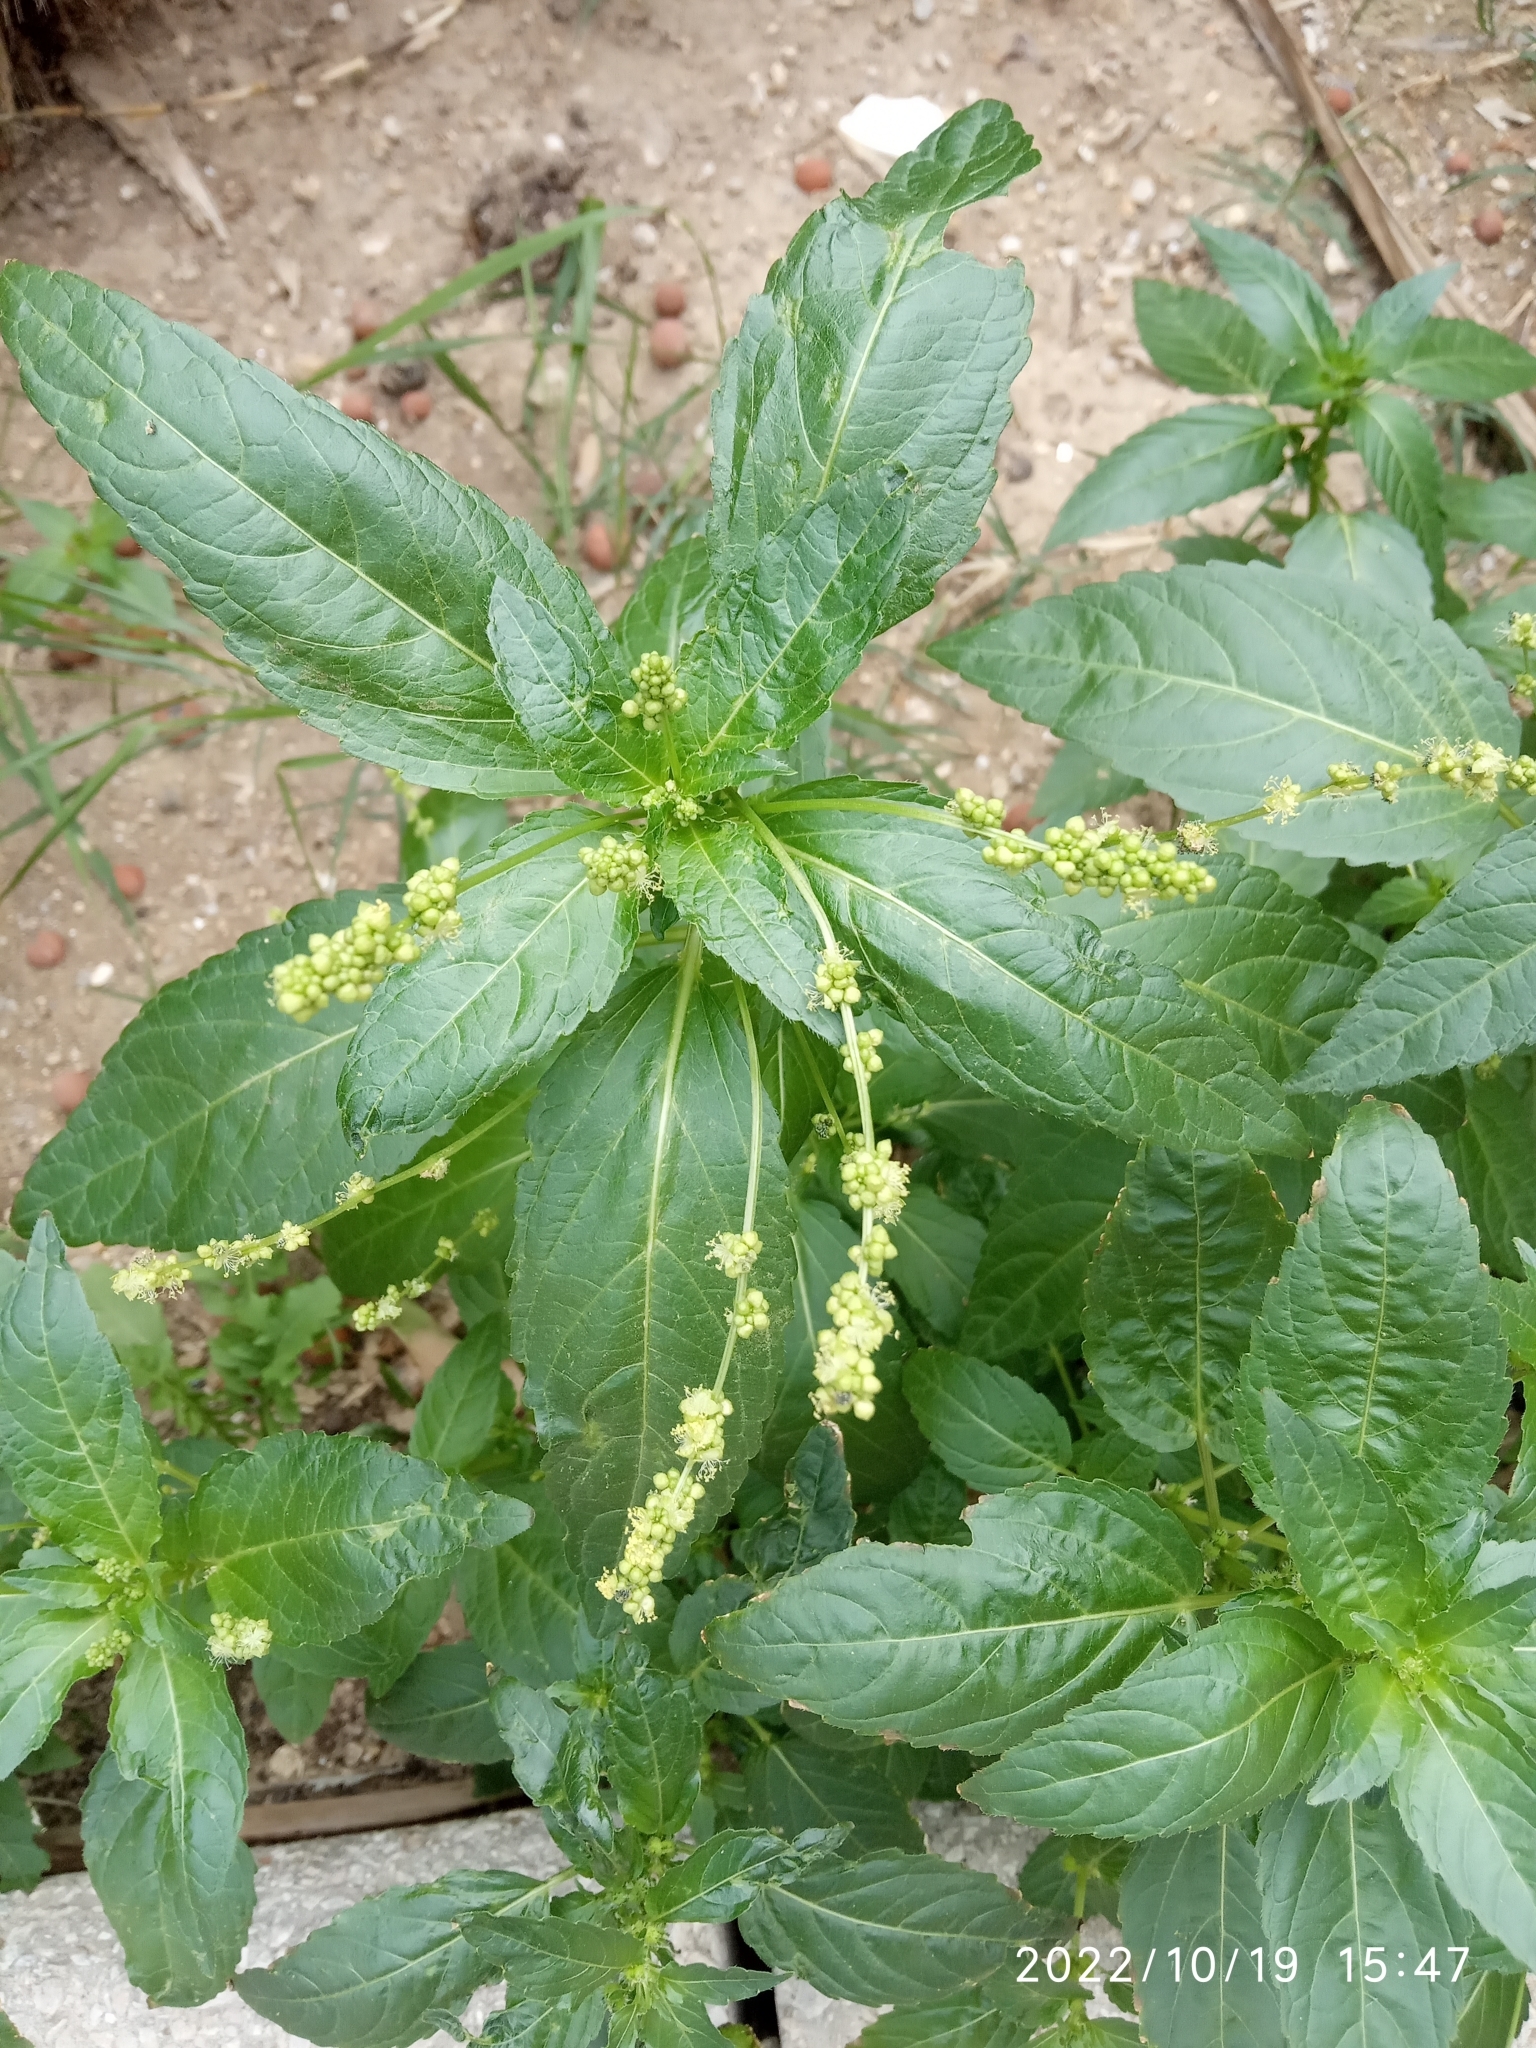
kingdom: Plantae
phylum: Tracheophyta
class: Magnoliopsida
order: Malpighiales
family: Euphorbiaceae
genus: Mercurialis
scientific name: Mercurialis annua
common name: Annual mercury
